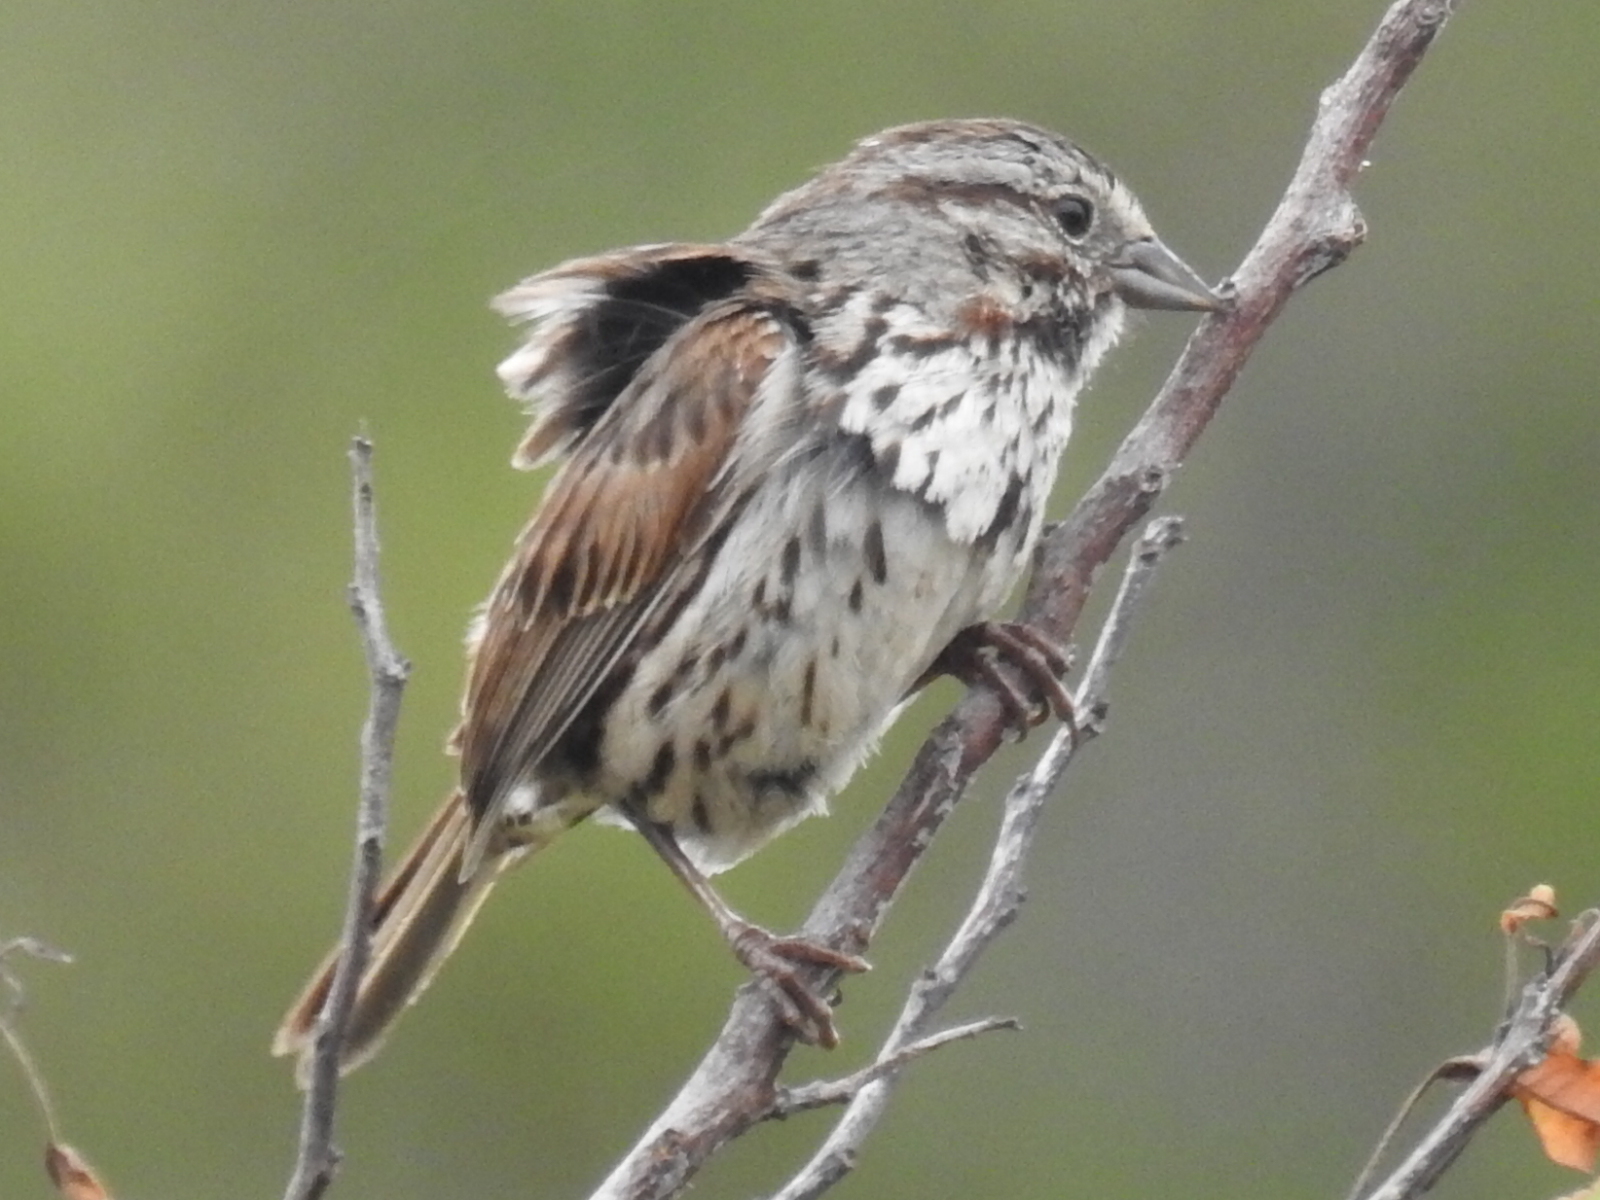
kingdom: Animalia
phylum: Chordata
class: Aves
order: Passeriformes
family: Passerellidae
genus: Melospiza
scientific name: Melospiza melodia
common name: Song sparrow
